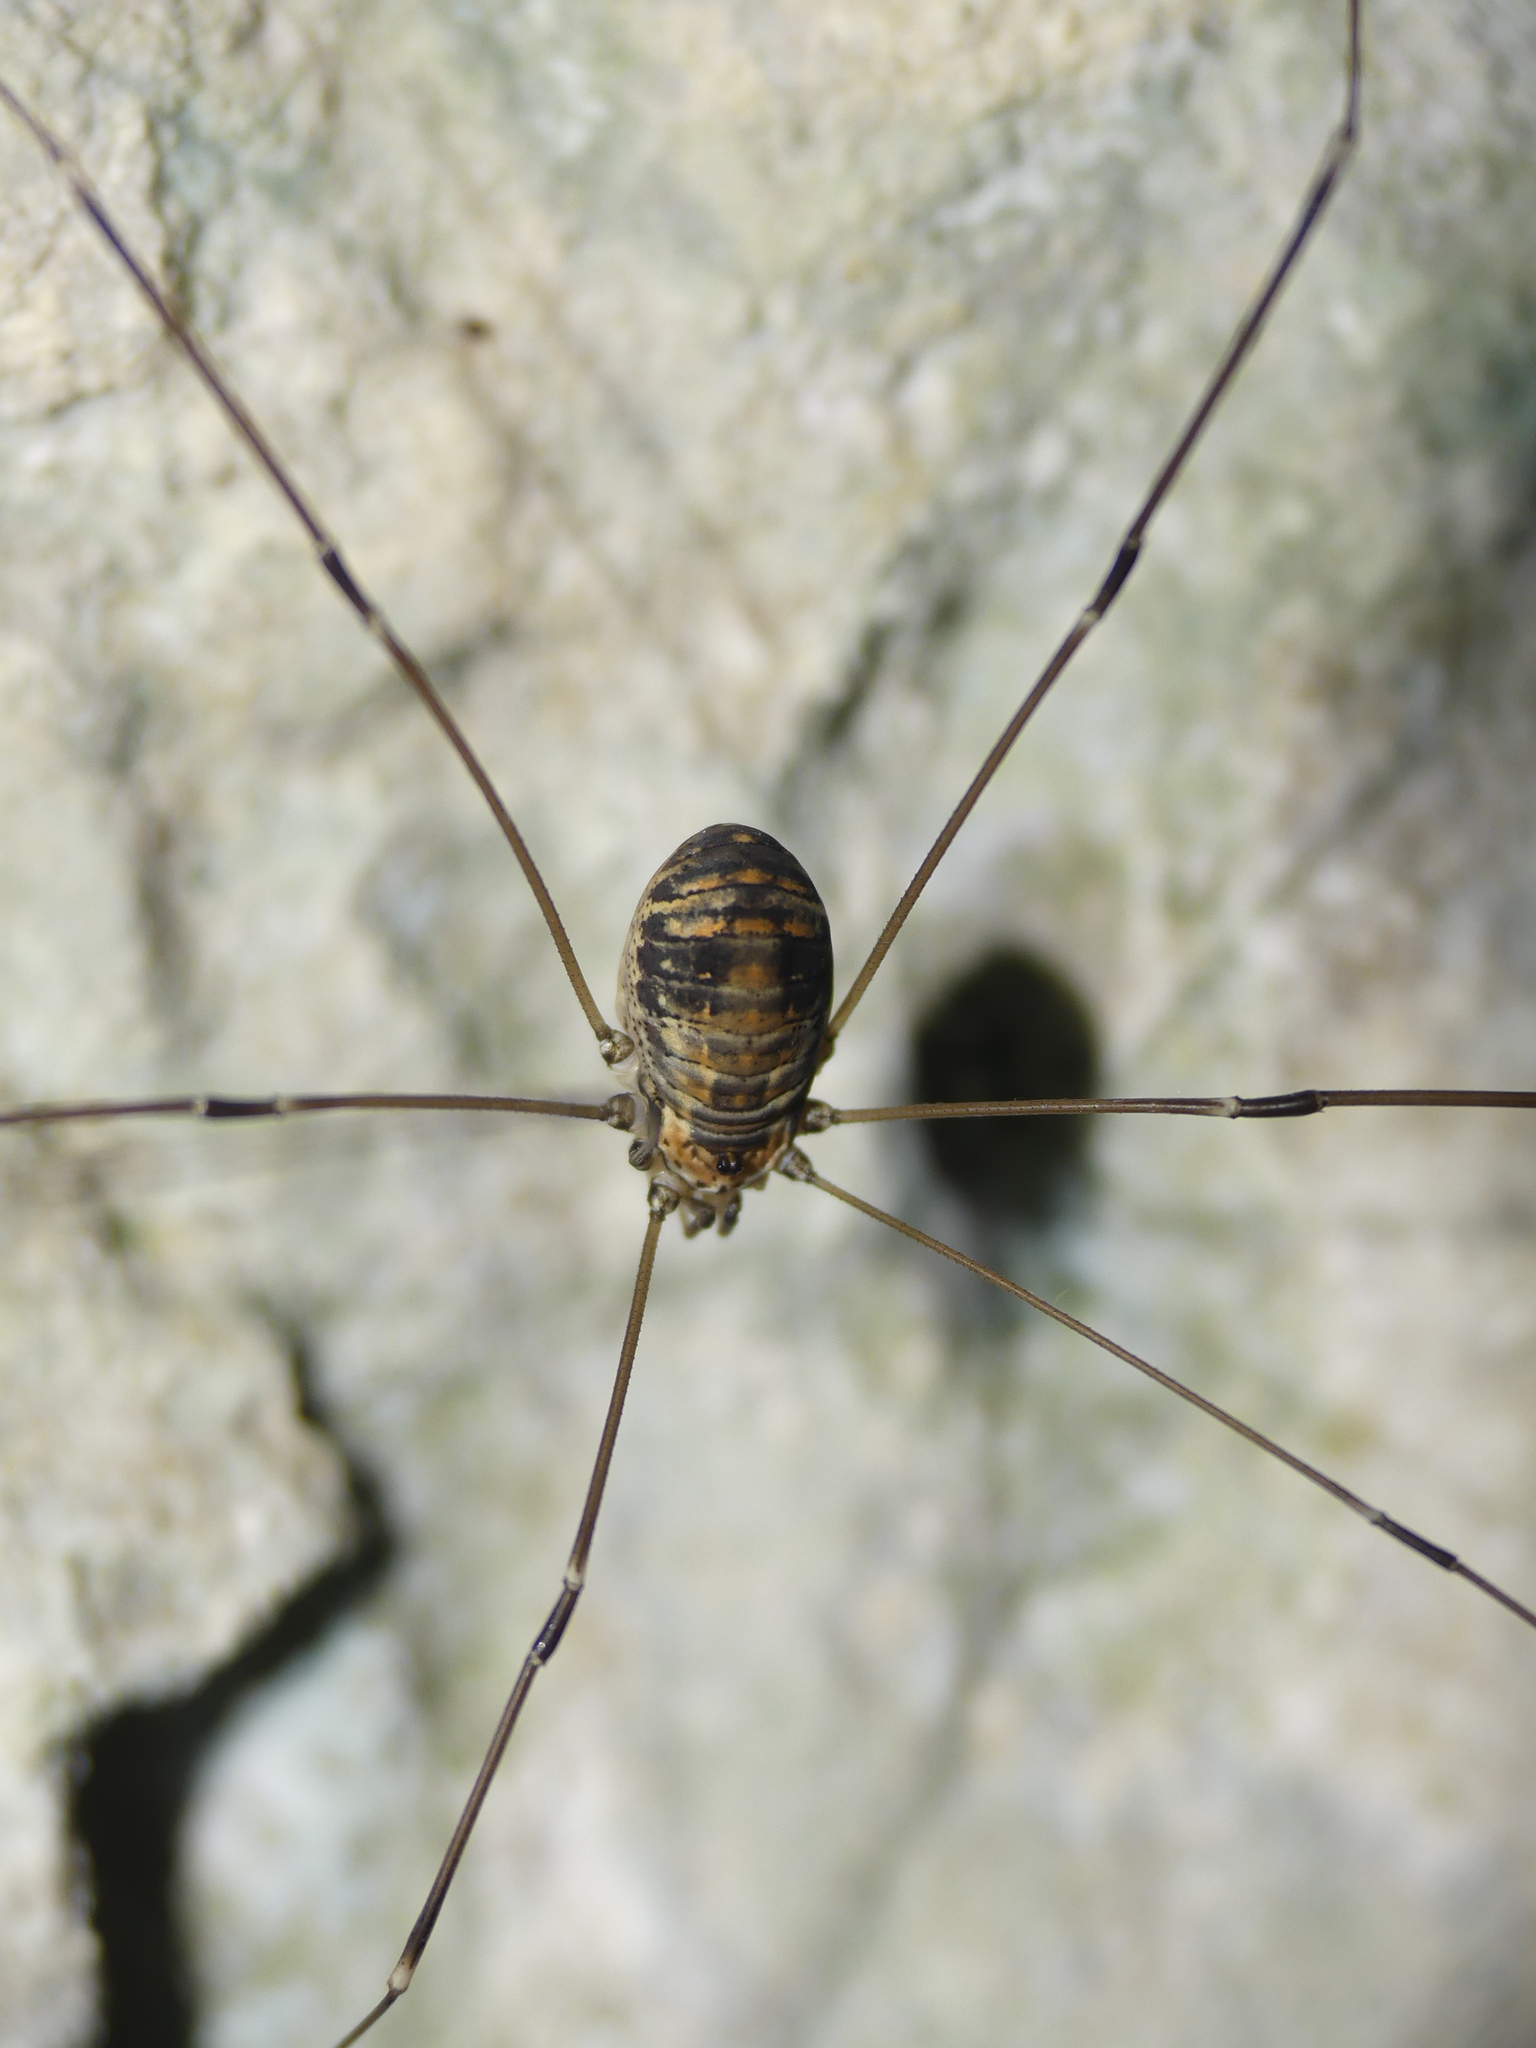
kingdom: Animalia
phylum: Arthropoda
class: Arachnida
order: Opiliones
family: Sclerosomatidae
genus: Leiobunum
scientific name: Leiobunum limbatum
